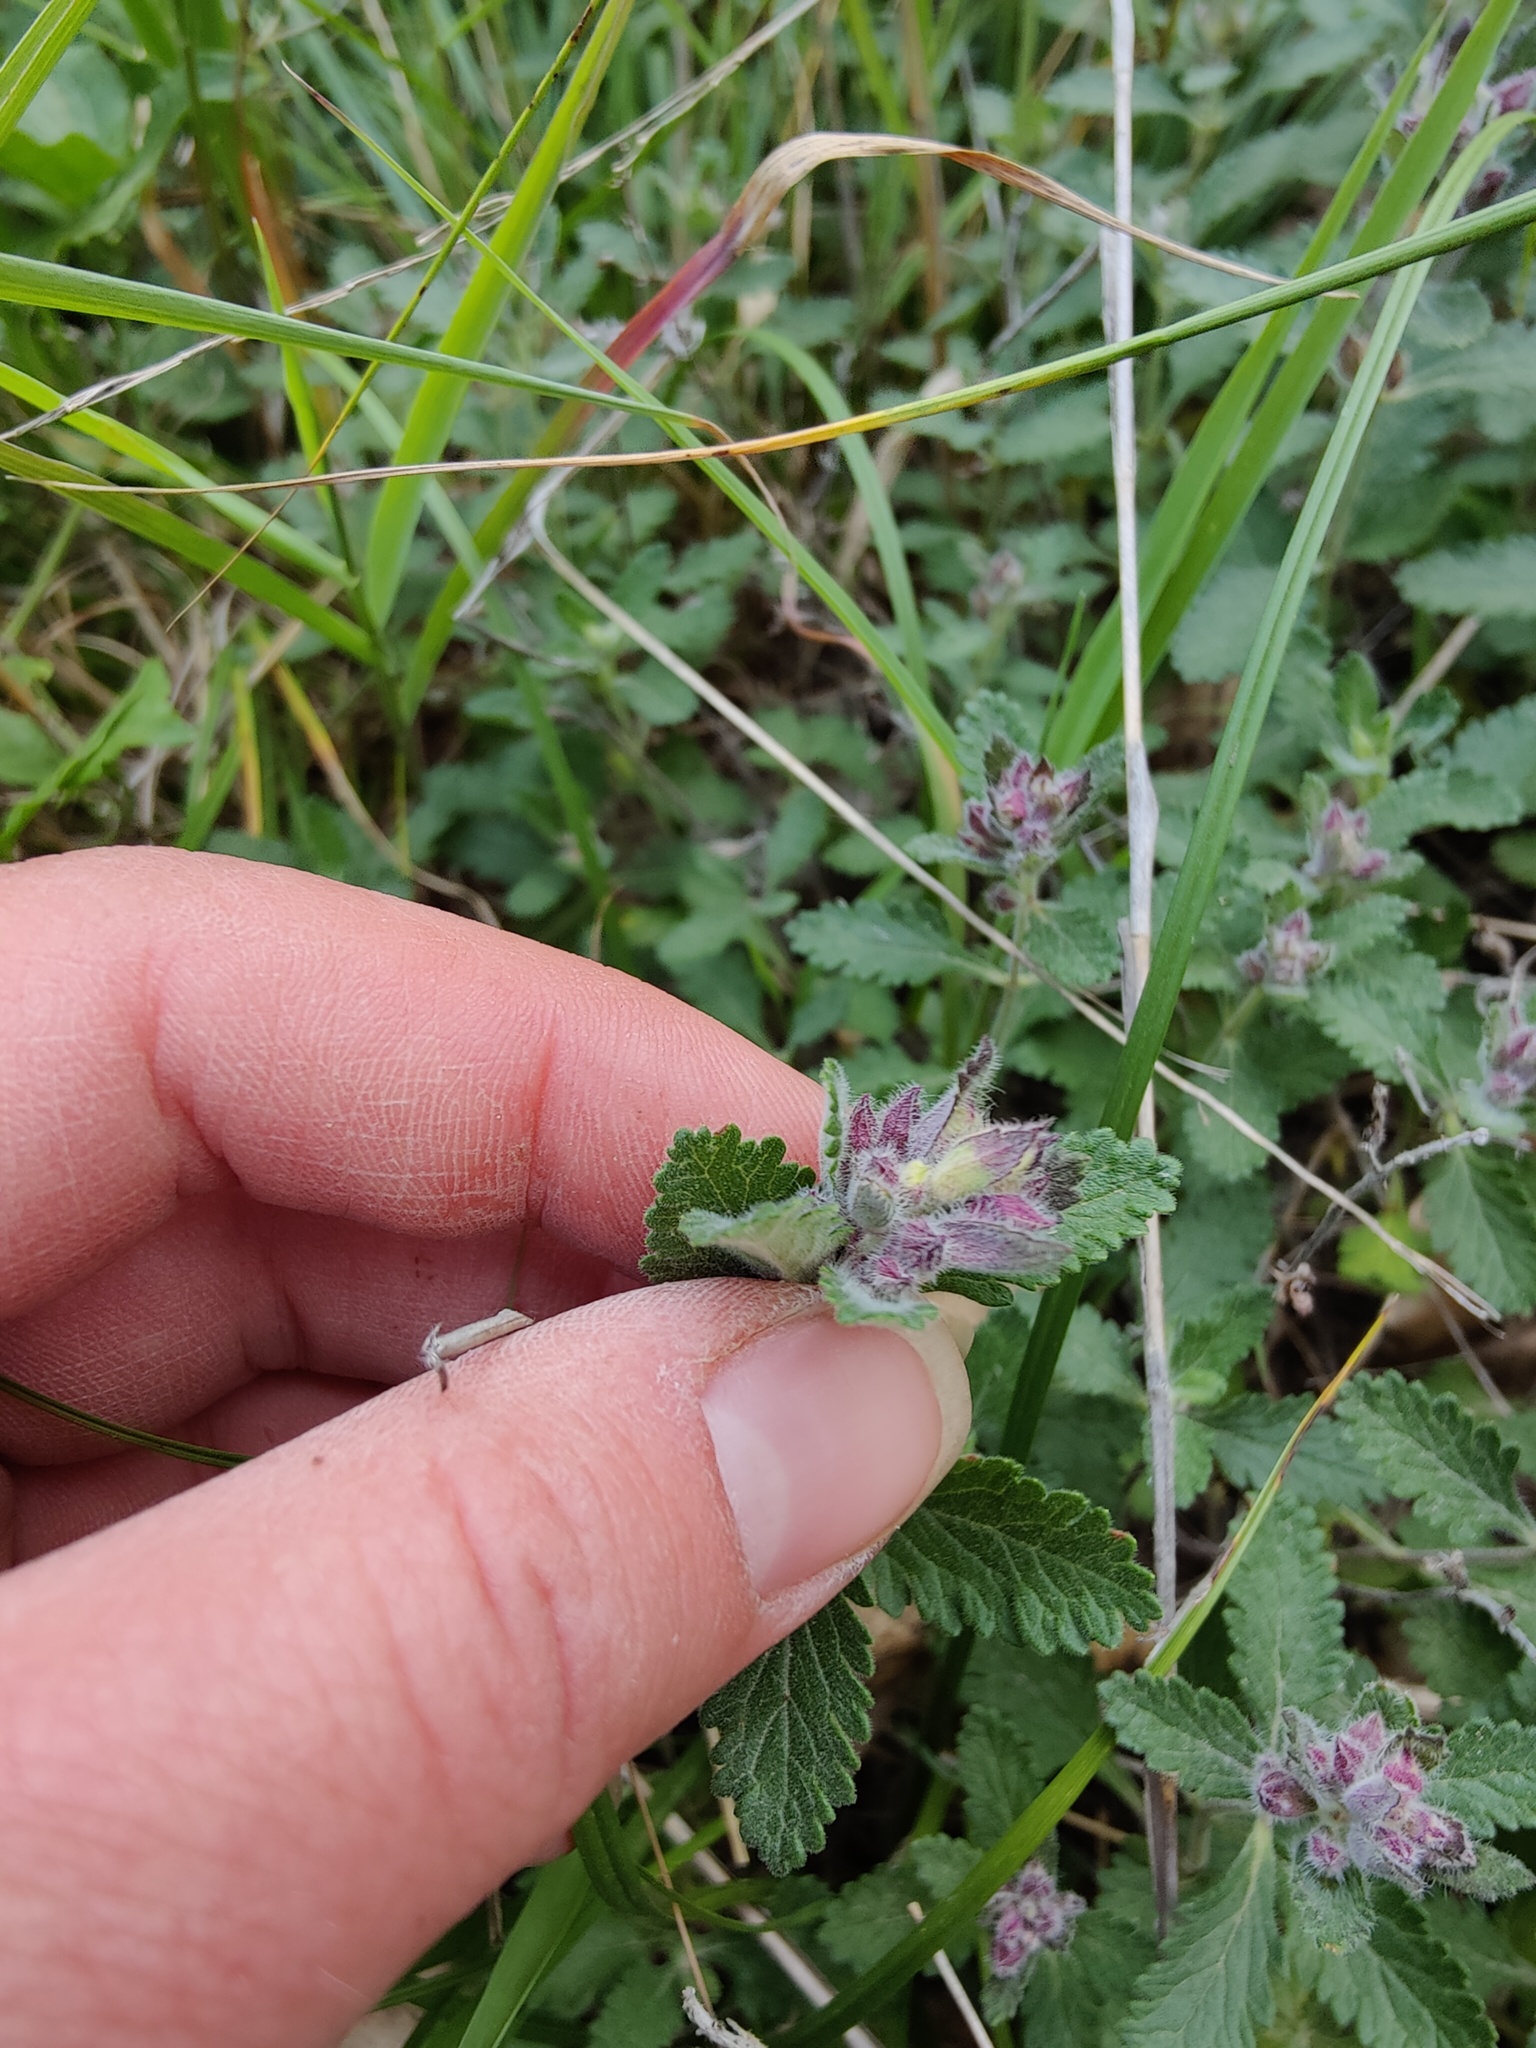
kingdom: Plantae
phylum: Tracheophyta
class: Magnoliopsida
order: Lamiales
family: Lamiaceae
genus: Teucrium
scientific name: Teucrium chamaedrys
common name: Wall germander
